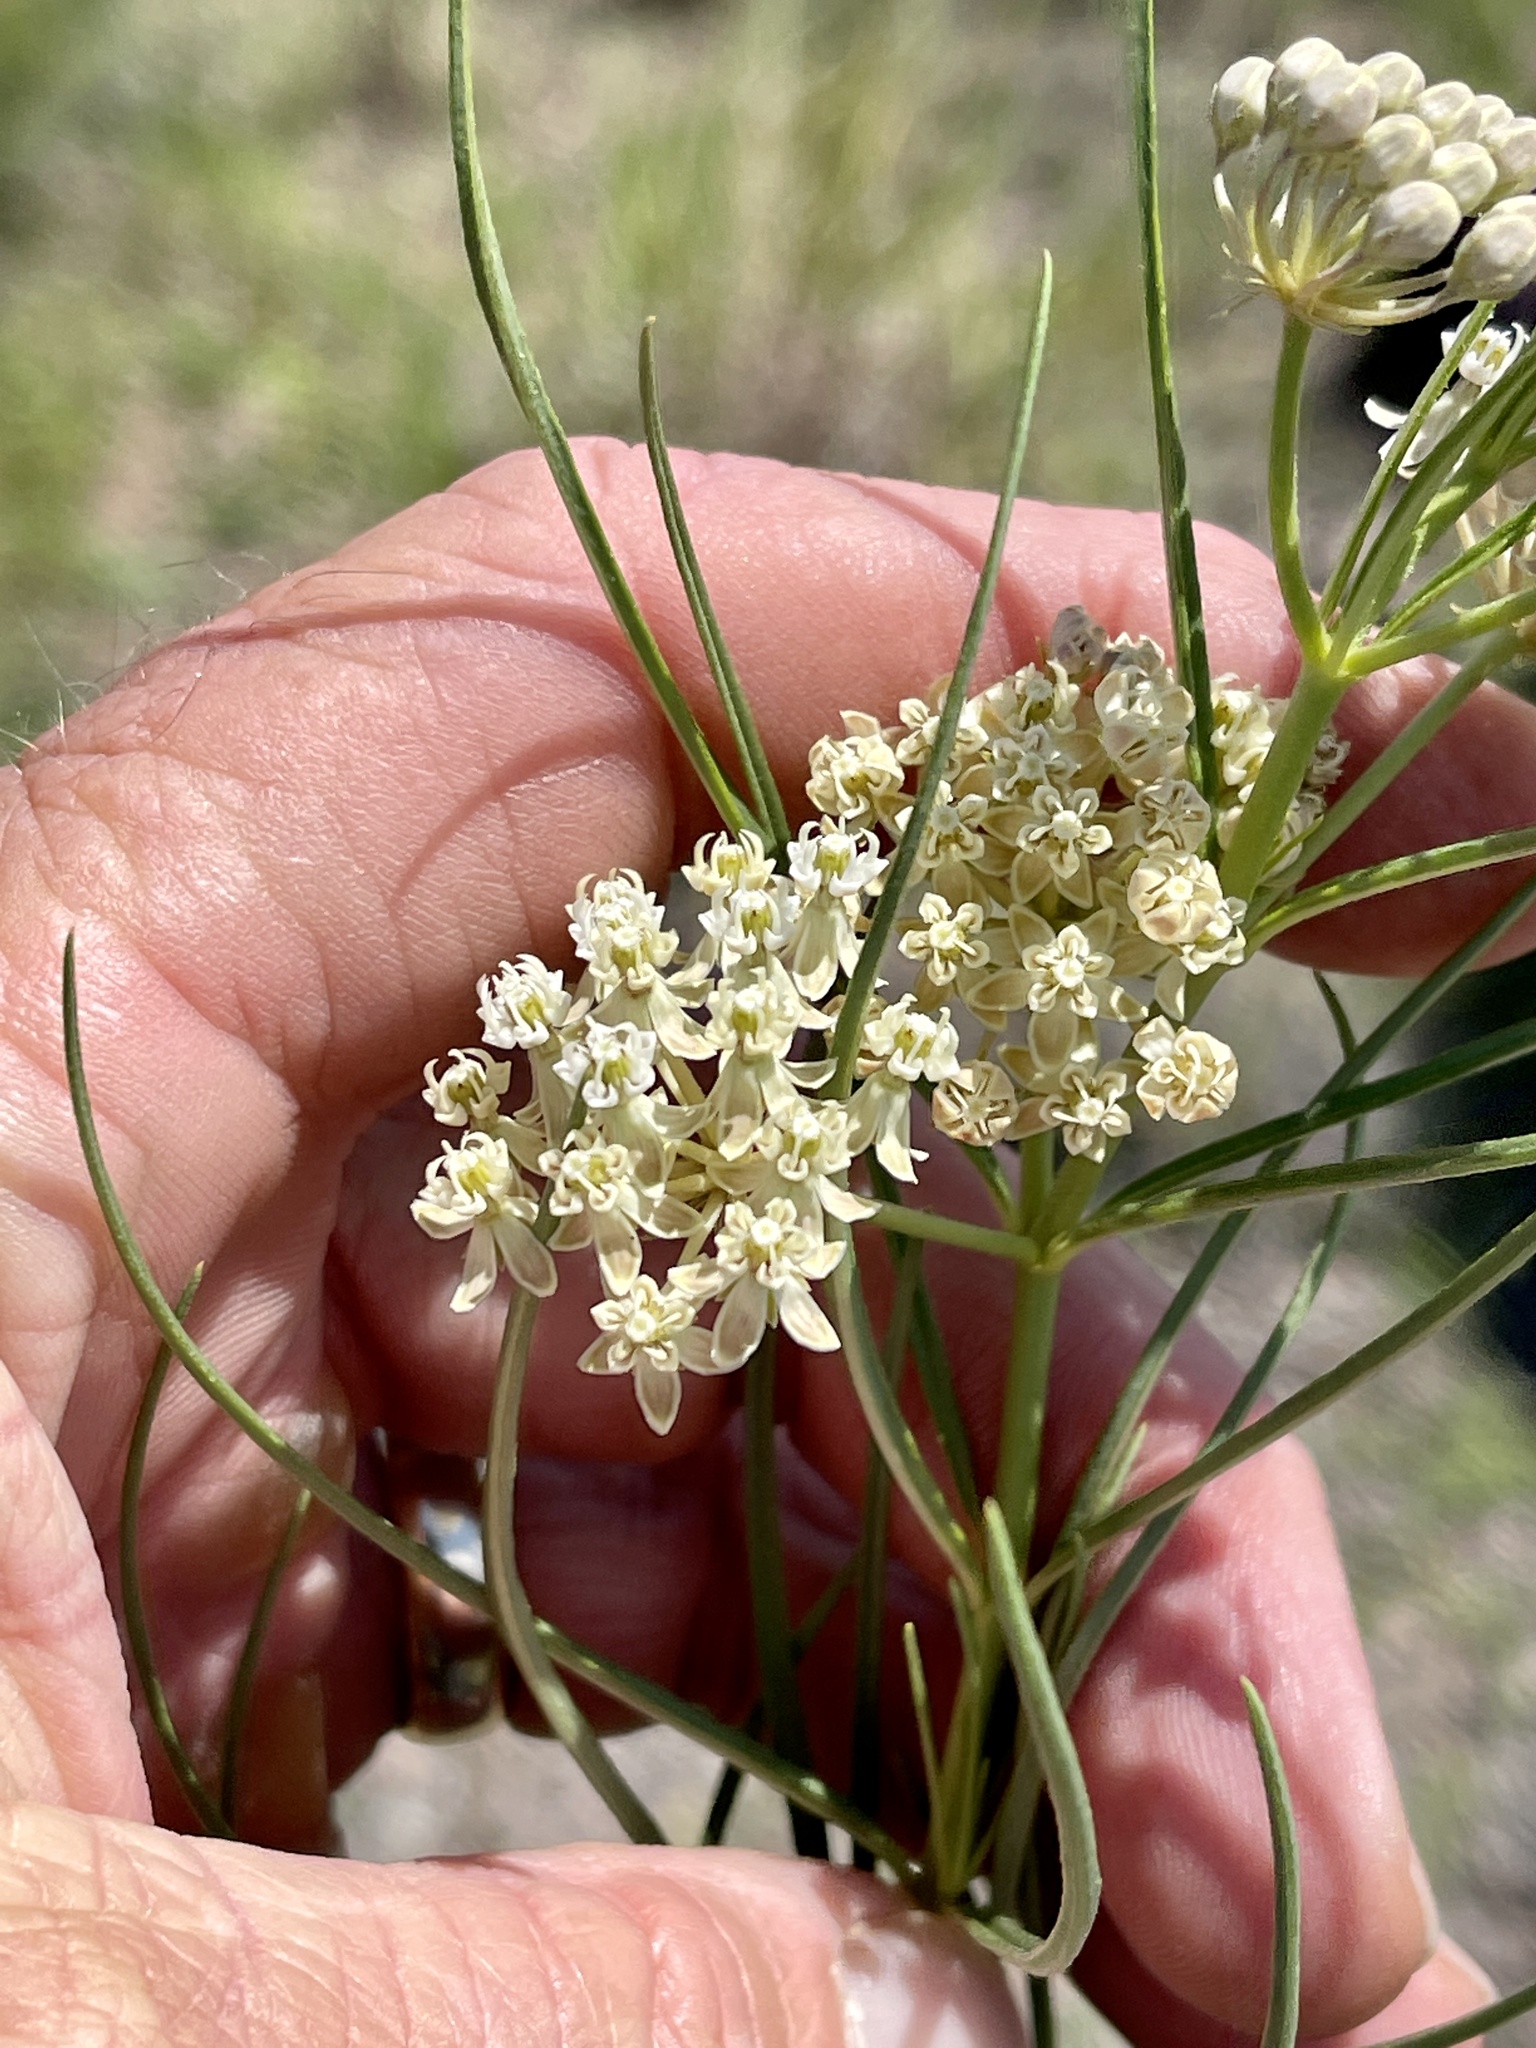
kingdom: Plantae
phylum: Tracheophyta
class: Magnoliopsida
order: Gentianales
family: Apocynaceae
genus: Asclepias
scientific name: Asclepias subverticillata
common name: Horsetail milkweed
